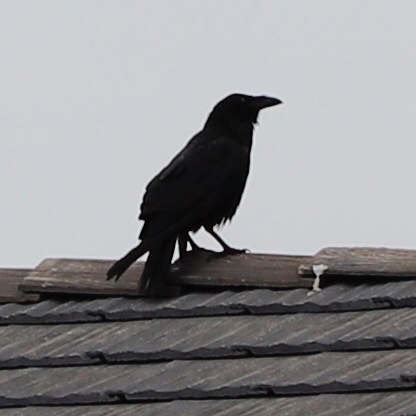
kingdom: Animalia
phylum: Chordata
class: Aves
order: Passeriformes
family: Corvidae
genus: Corvus
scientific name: Corvus corax
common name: Common raven
